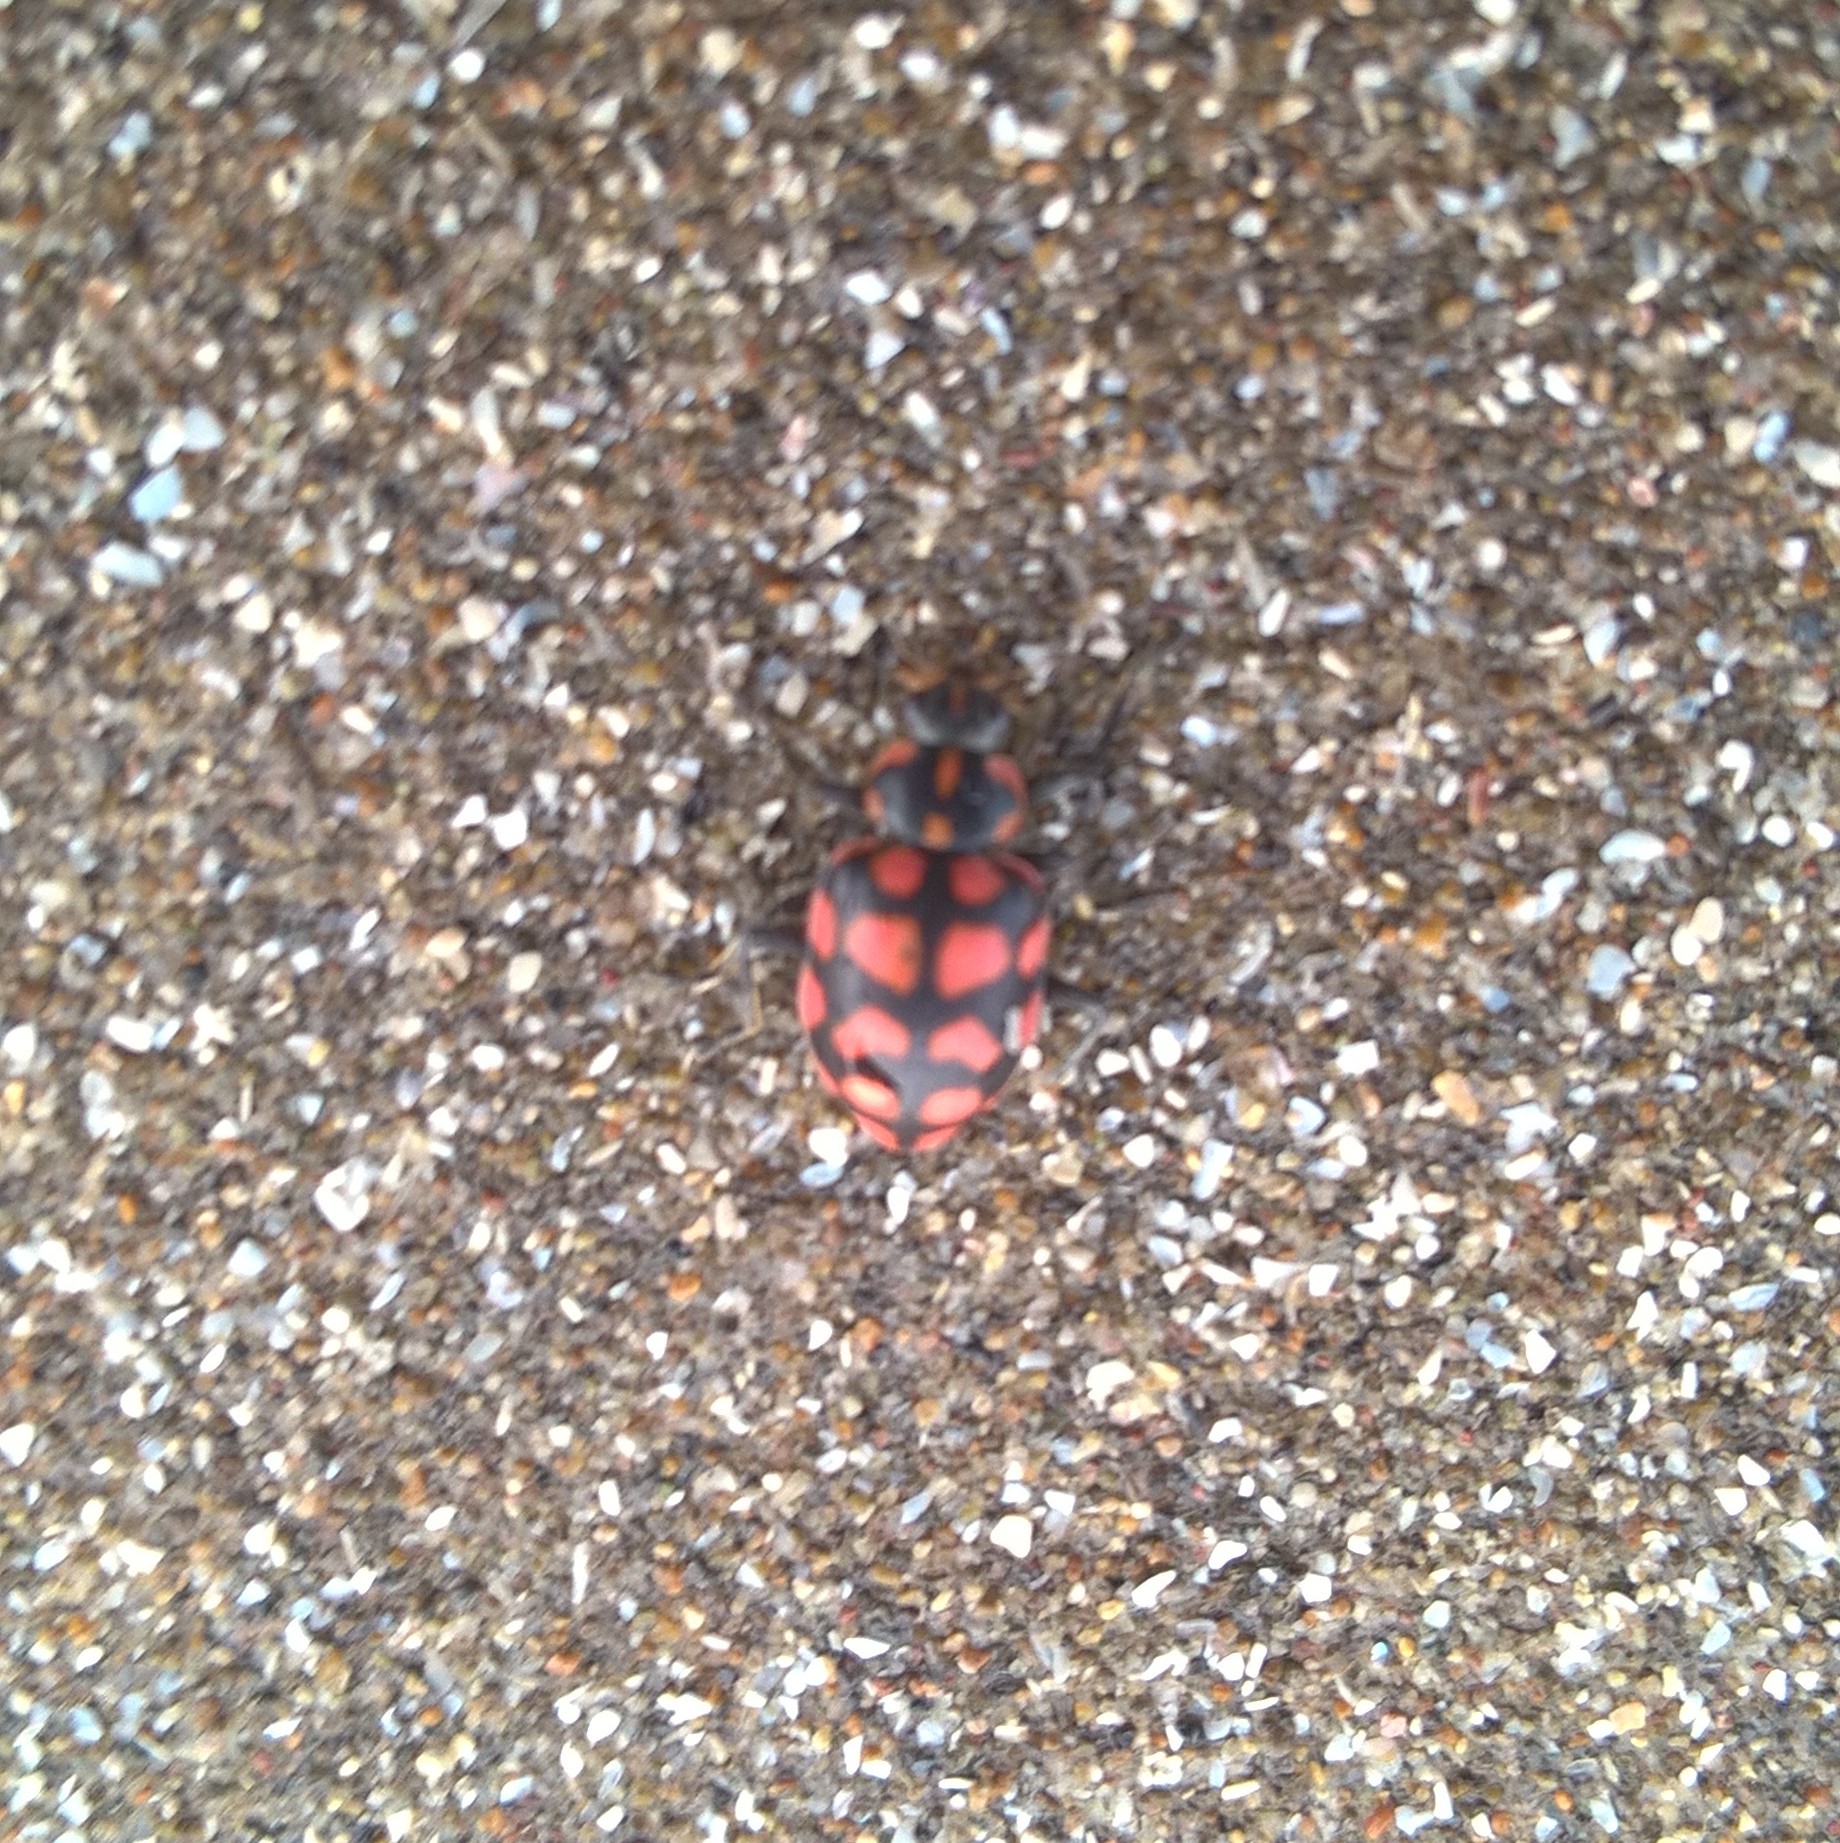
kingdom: Animalia
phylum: Arthropoda
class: Insecta
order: Coleoptera
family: Coccinellidae
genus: Coleomegilla
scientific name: Coleomegilla
